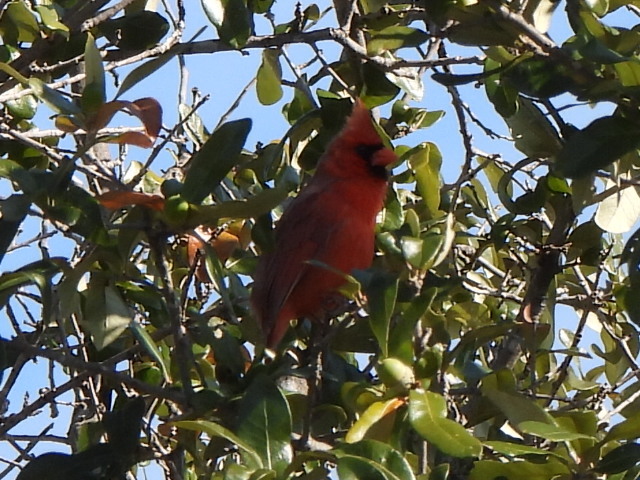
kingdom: Animalia
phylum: Chordata
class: Aves
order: Passeriformes
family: Cardinalidae
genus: Cardinalis
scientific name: Cardinalis cardinalis
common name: Northern cardinal
